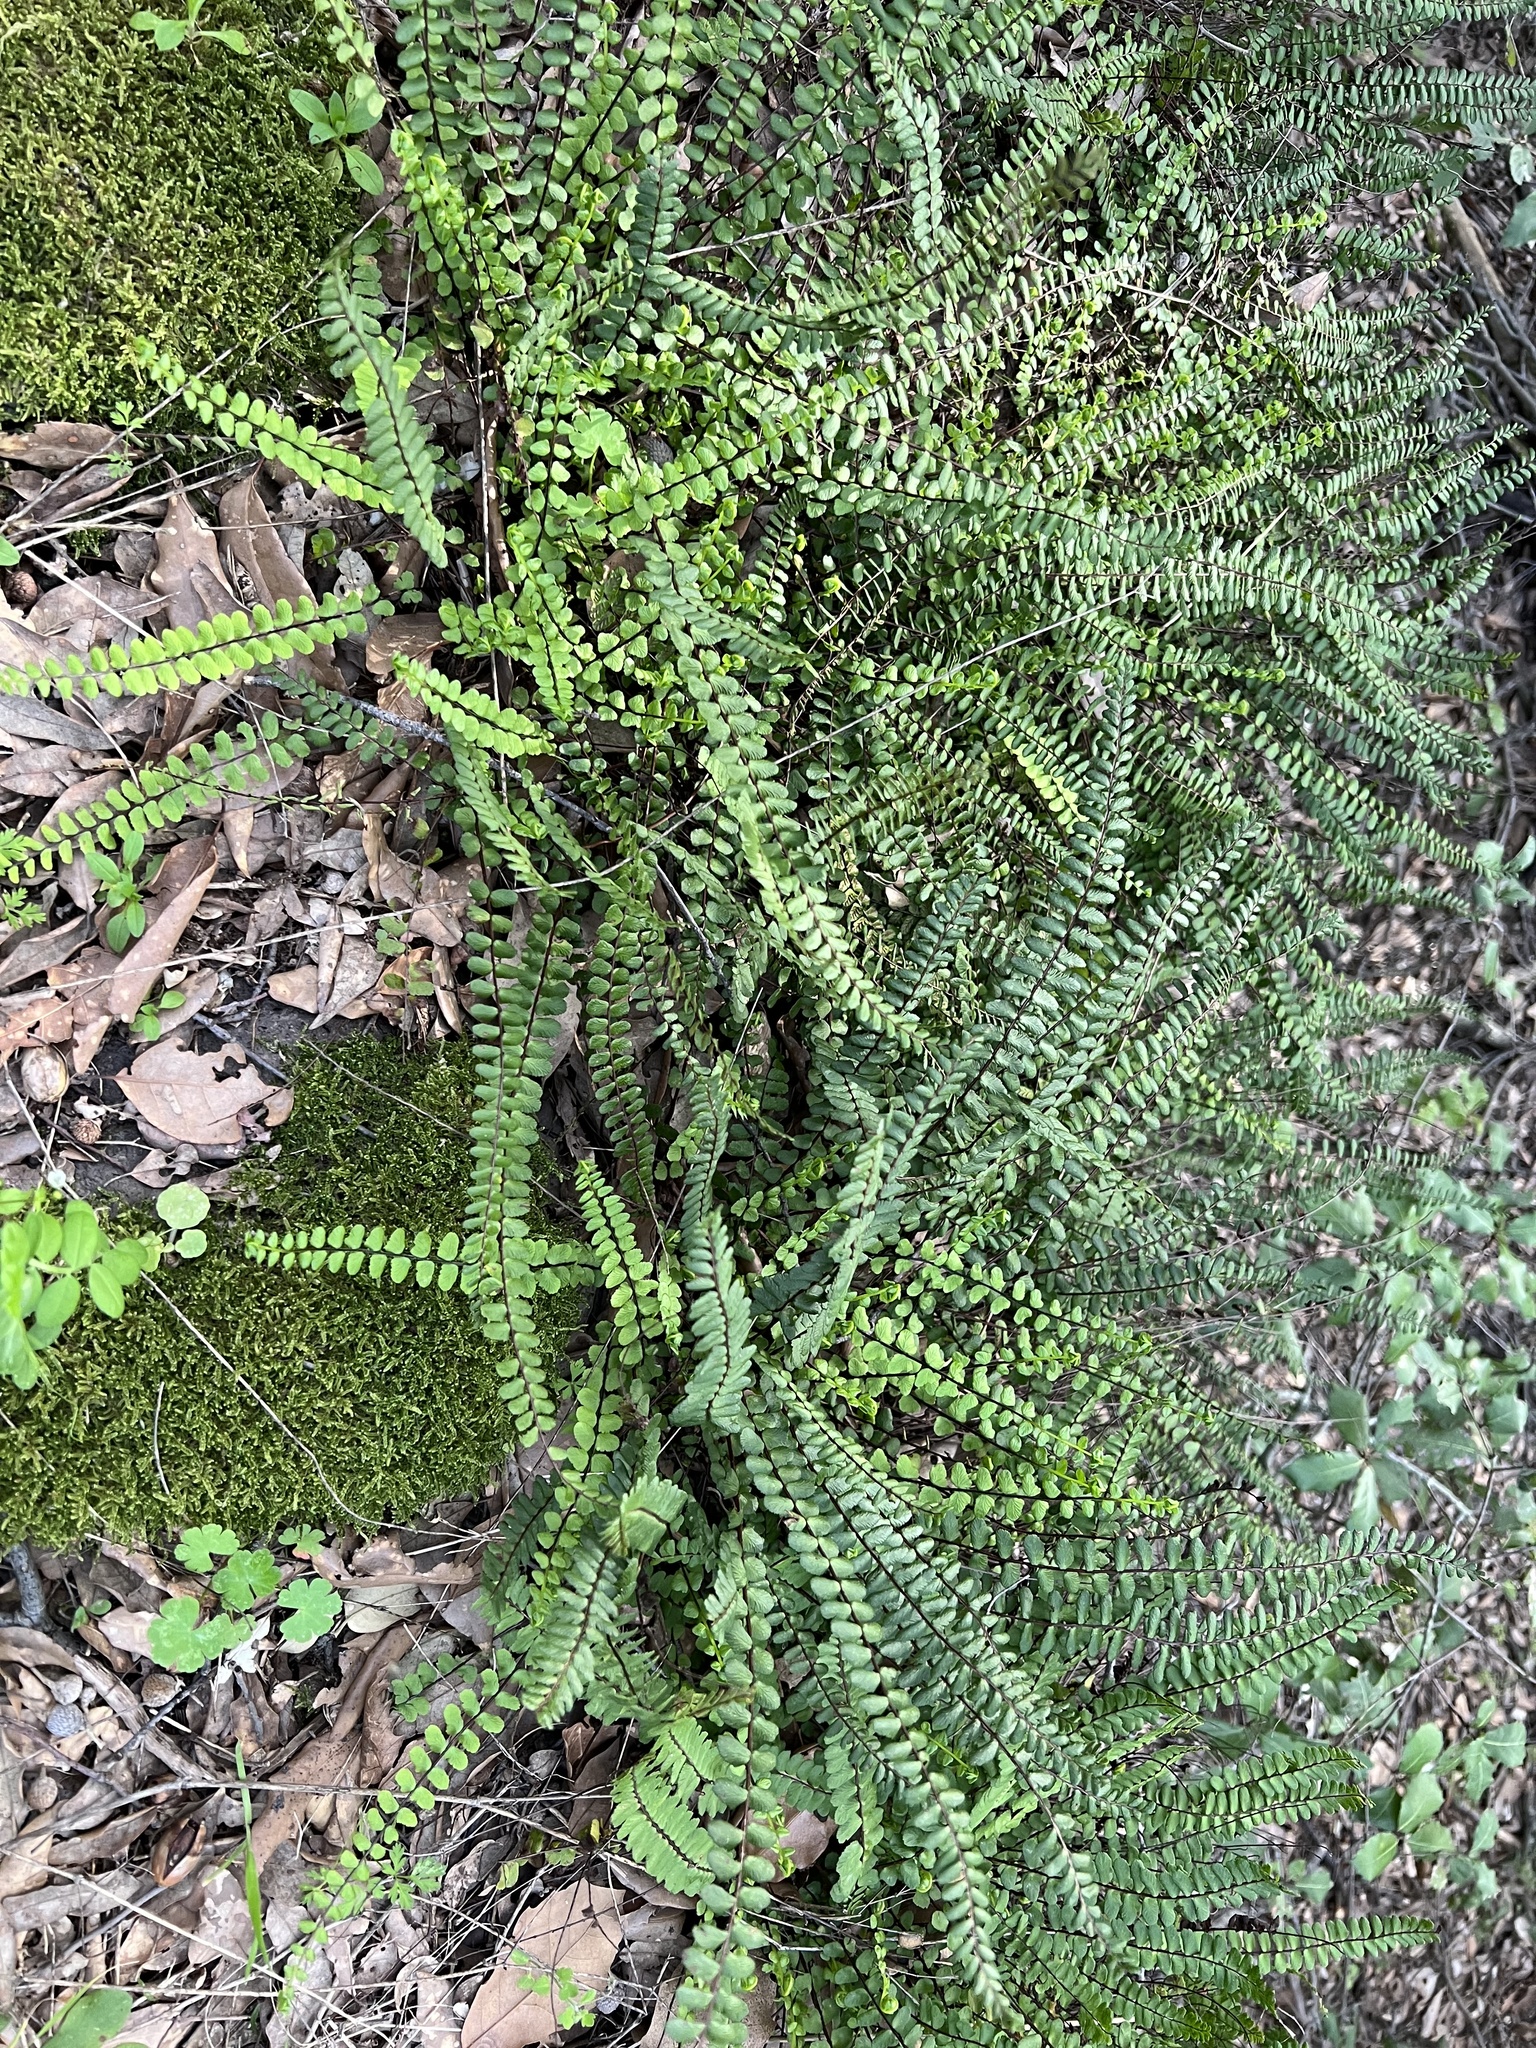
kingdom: Plantae
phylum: Tracheophyta
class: Polypodiopsida
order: Polypodiales
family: Aspleniaceae
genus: Asplenium
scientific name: Asplenium trichomanes
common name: Maidenhair spleenwort
